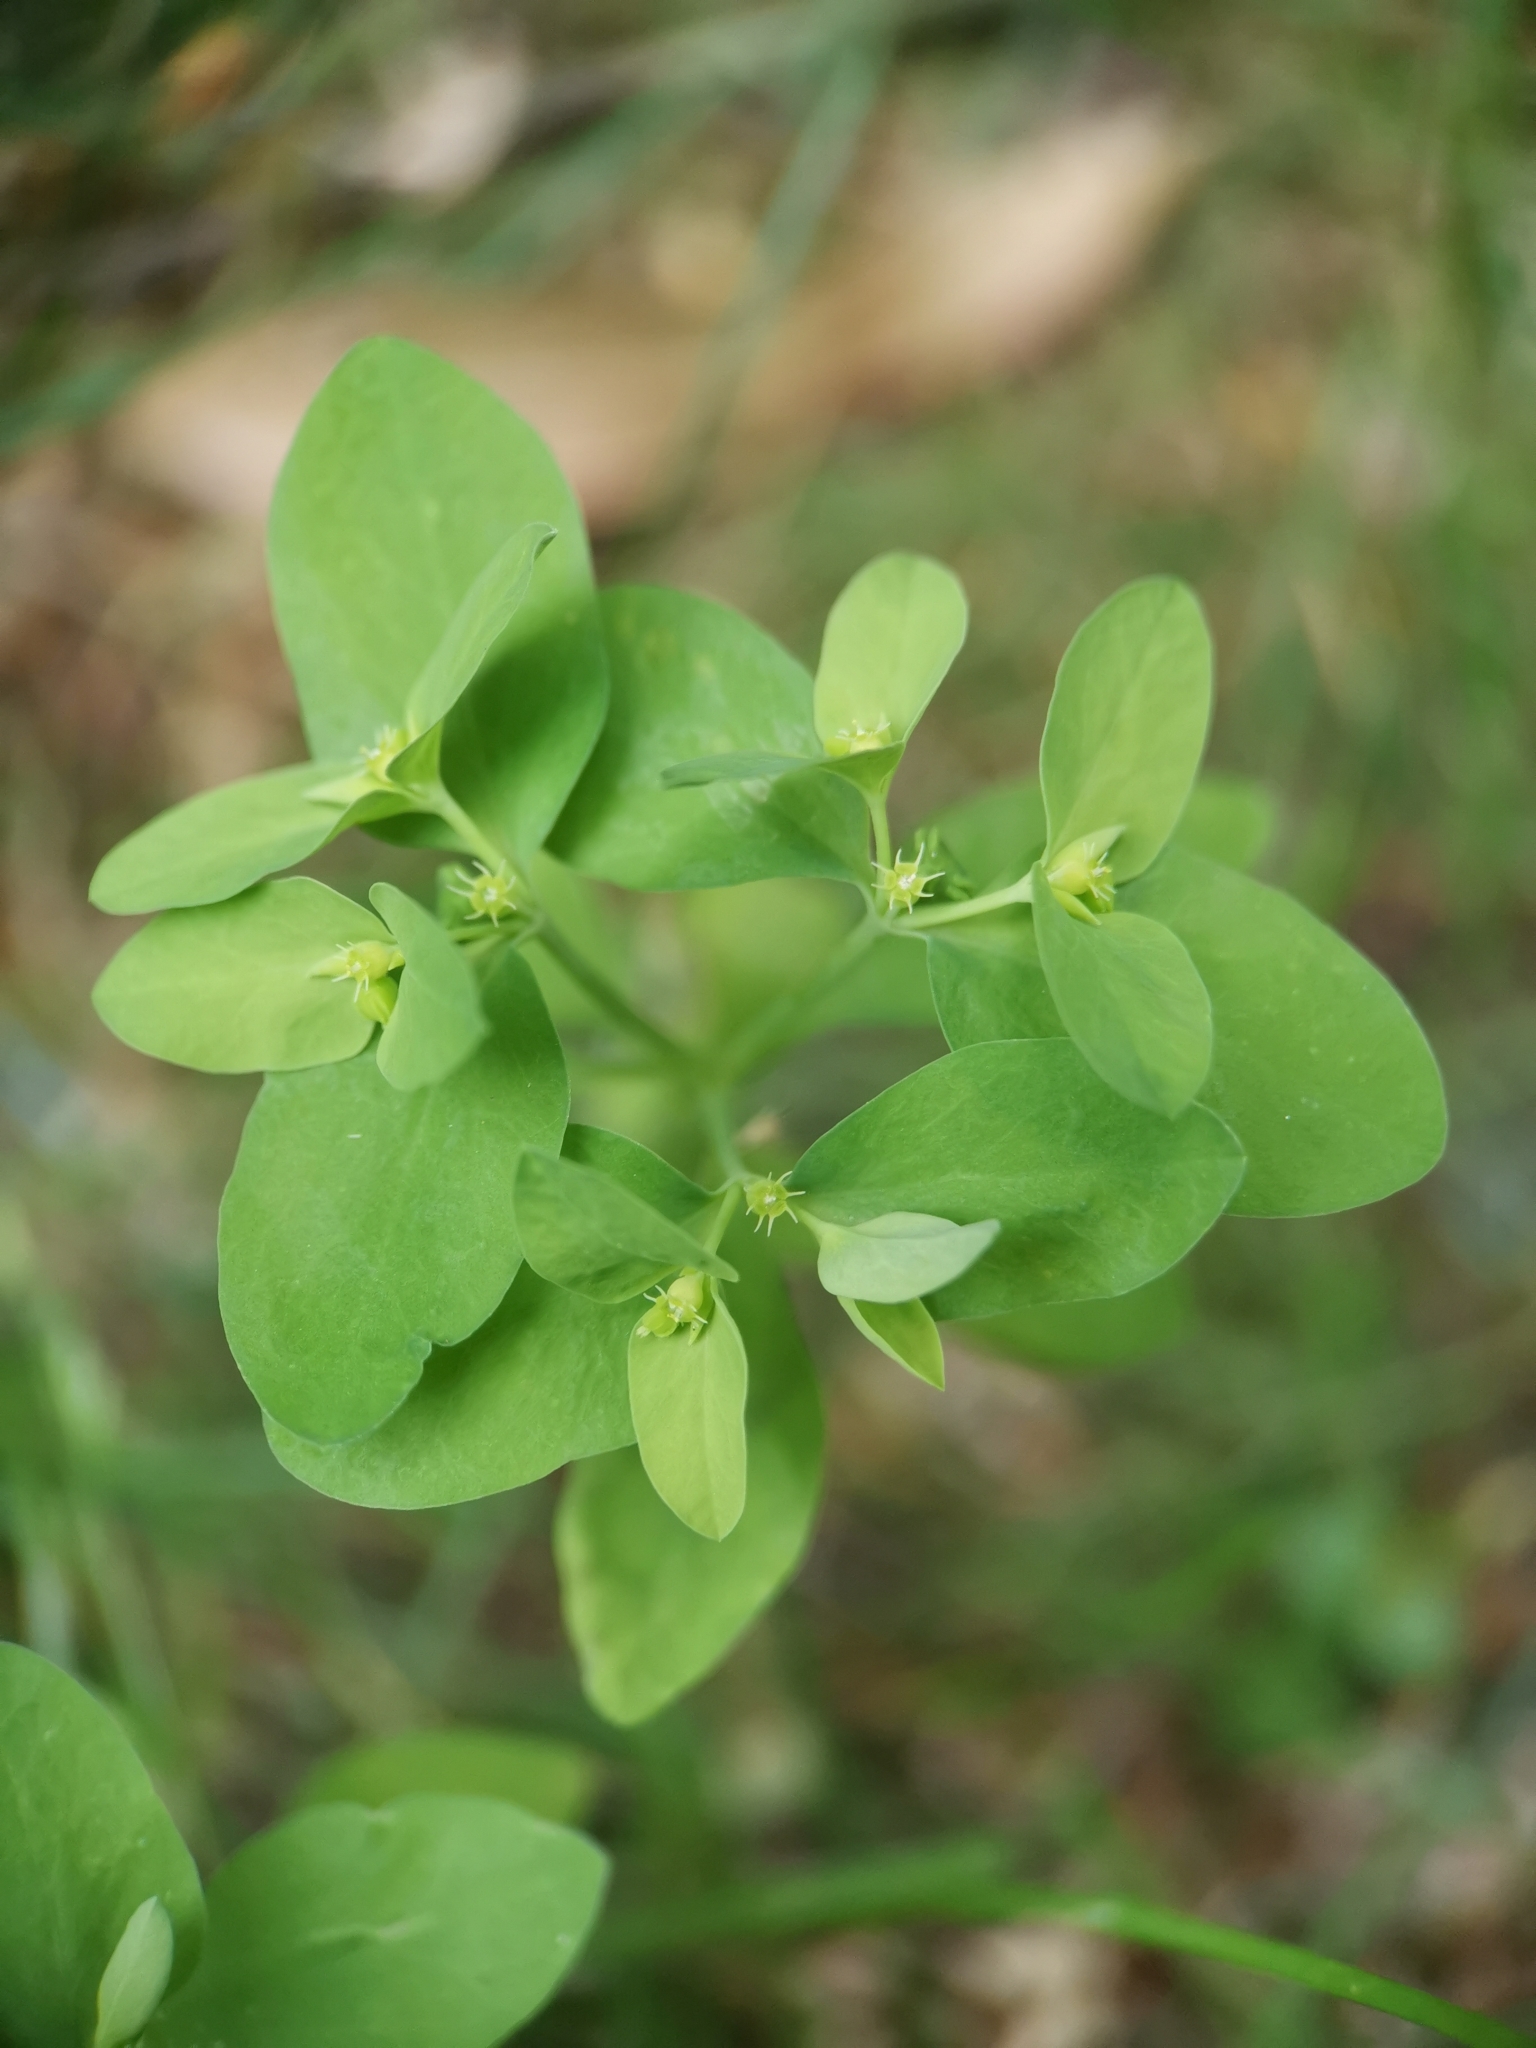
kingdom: Plantae
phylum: Tracheophyta
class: Magnoliopsida
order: Malpighiales
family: Euphorbiaceae
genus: Euphorbia
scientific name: Euphorbia peplus
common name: Petty spurge
